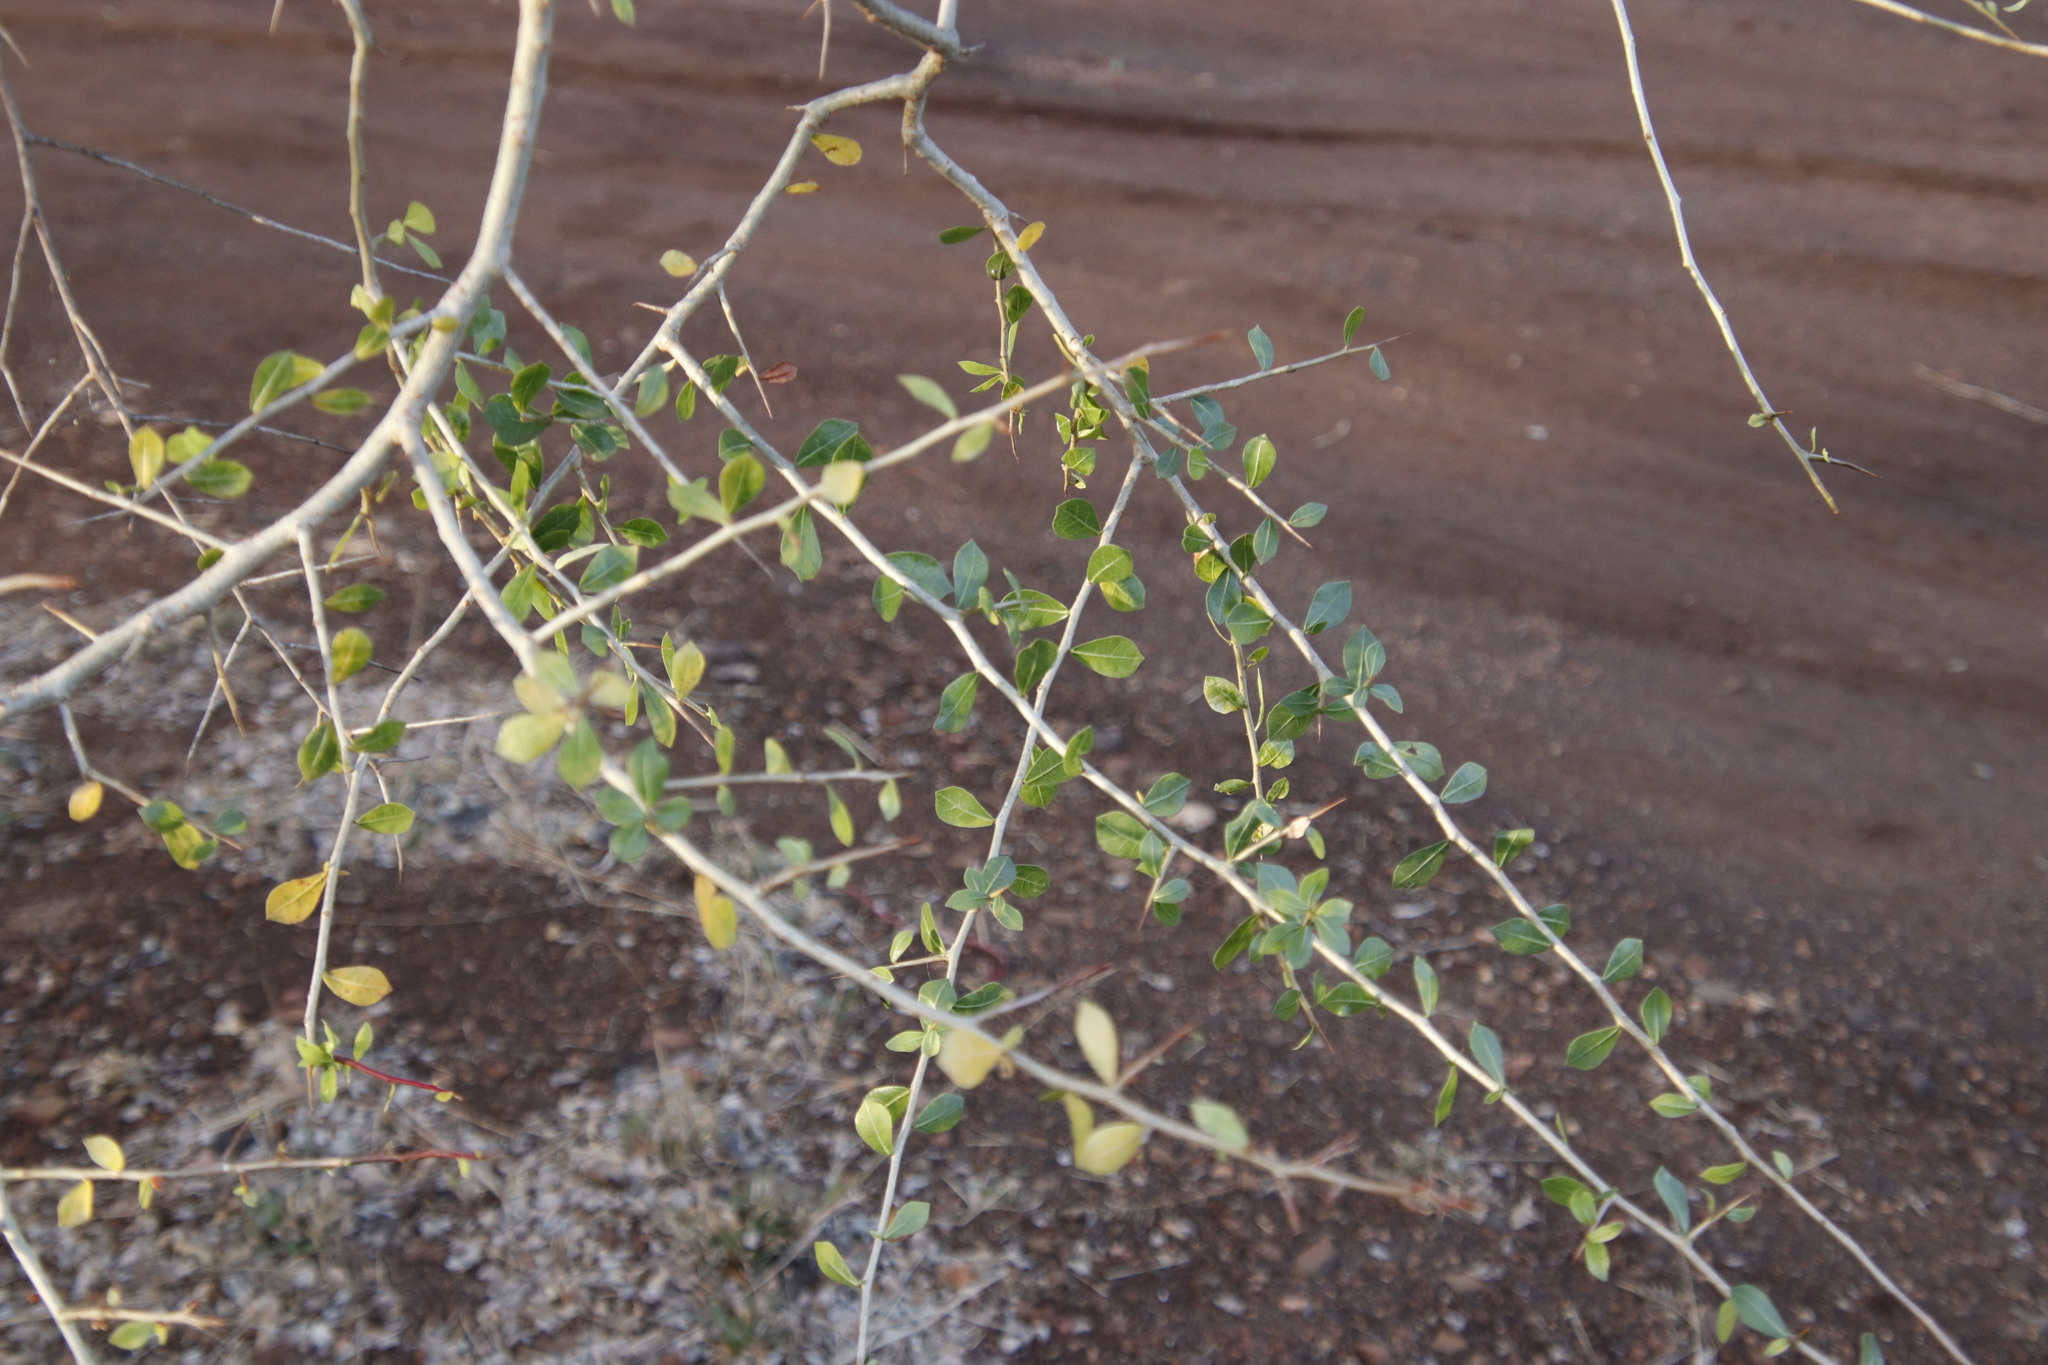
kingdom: Plantae
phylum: Tracheophyta
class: Magnoliopsida
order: Sapindales
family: Burseraceae
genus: Commiphora
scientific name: Commiphora glandulosa
